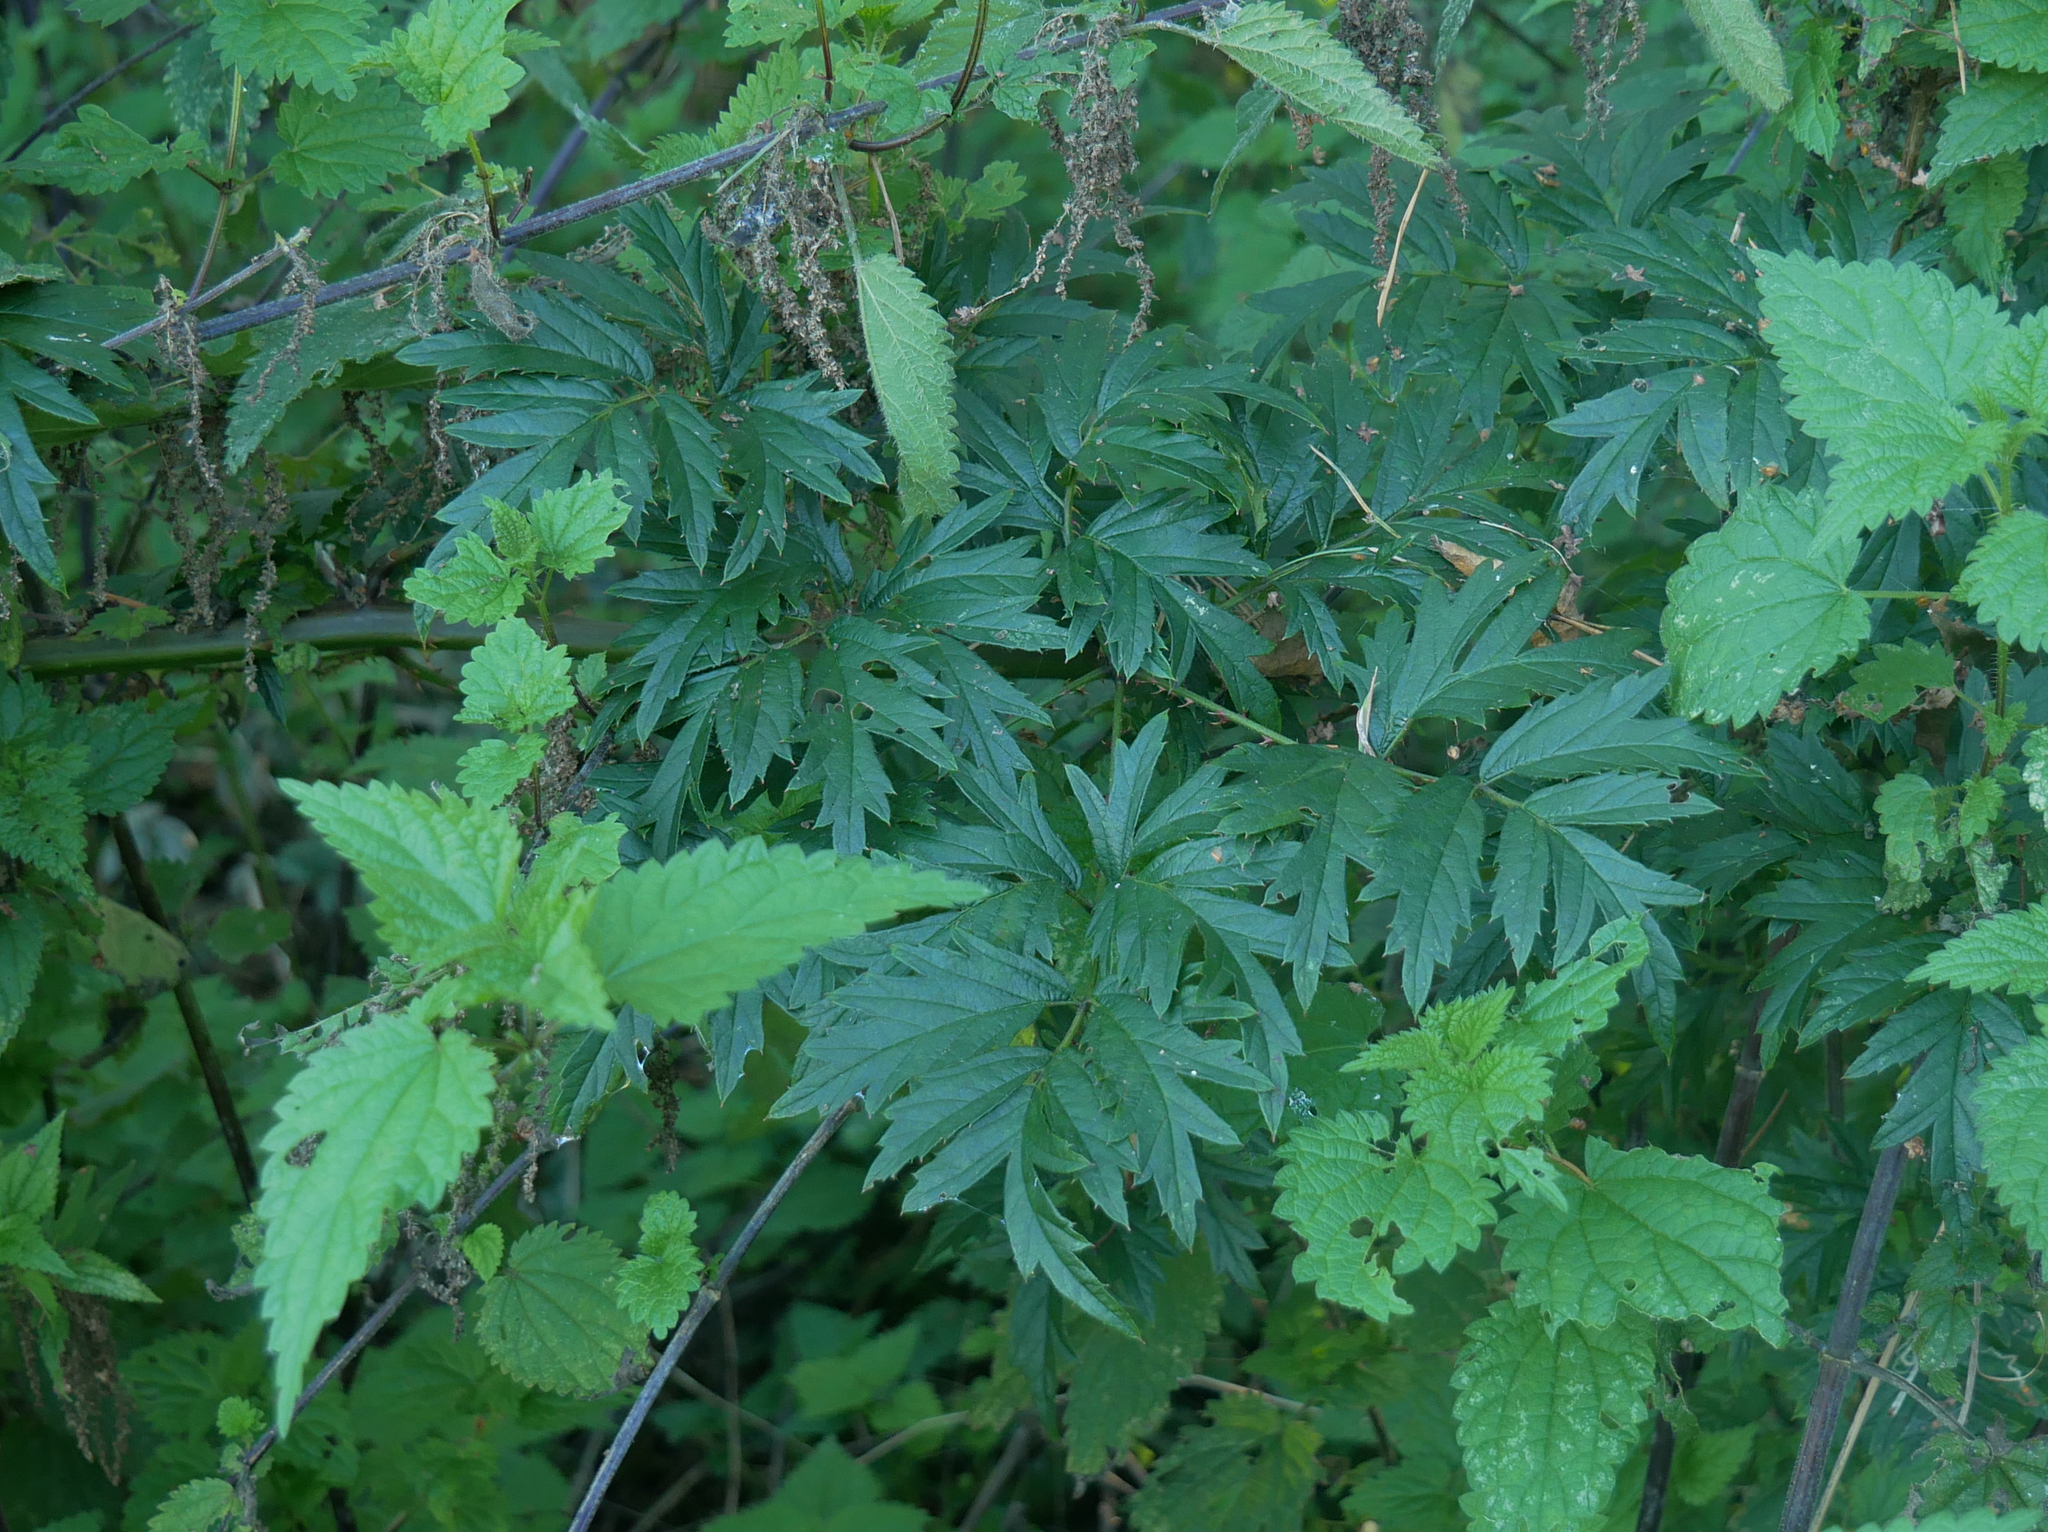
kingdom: Plantae
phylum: Tracheophyta
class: Magnoliopsida
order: Rosales
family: Rosaceae
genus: Rubus
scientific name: Rubus laciniatus
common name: Evergreen blackberry
